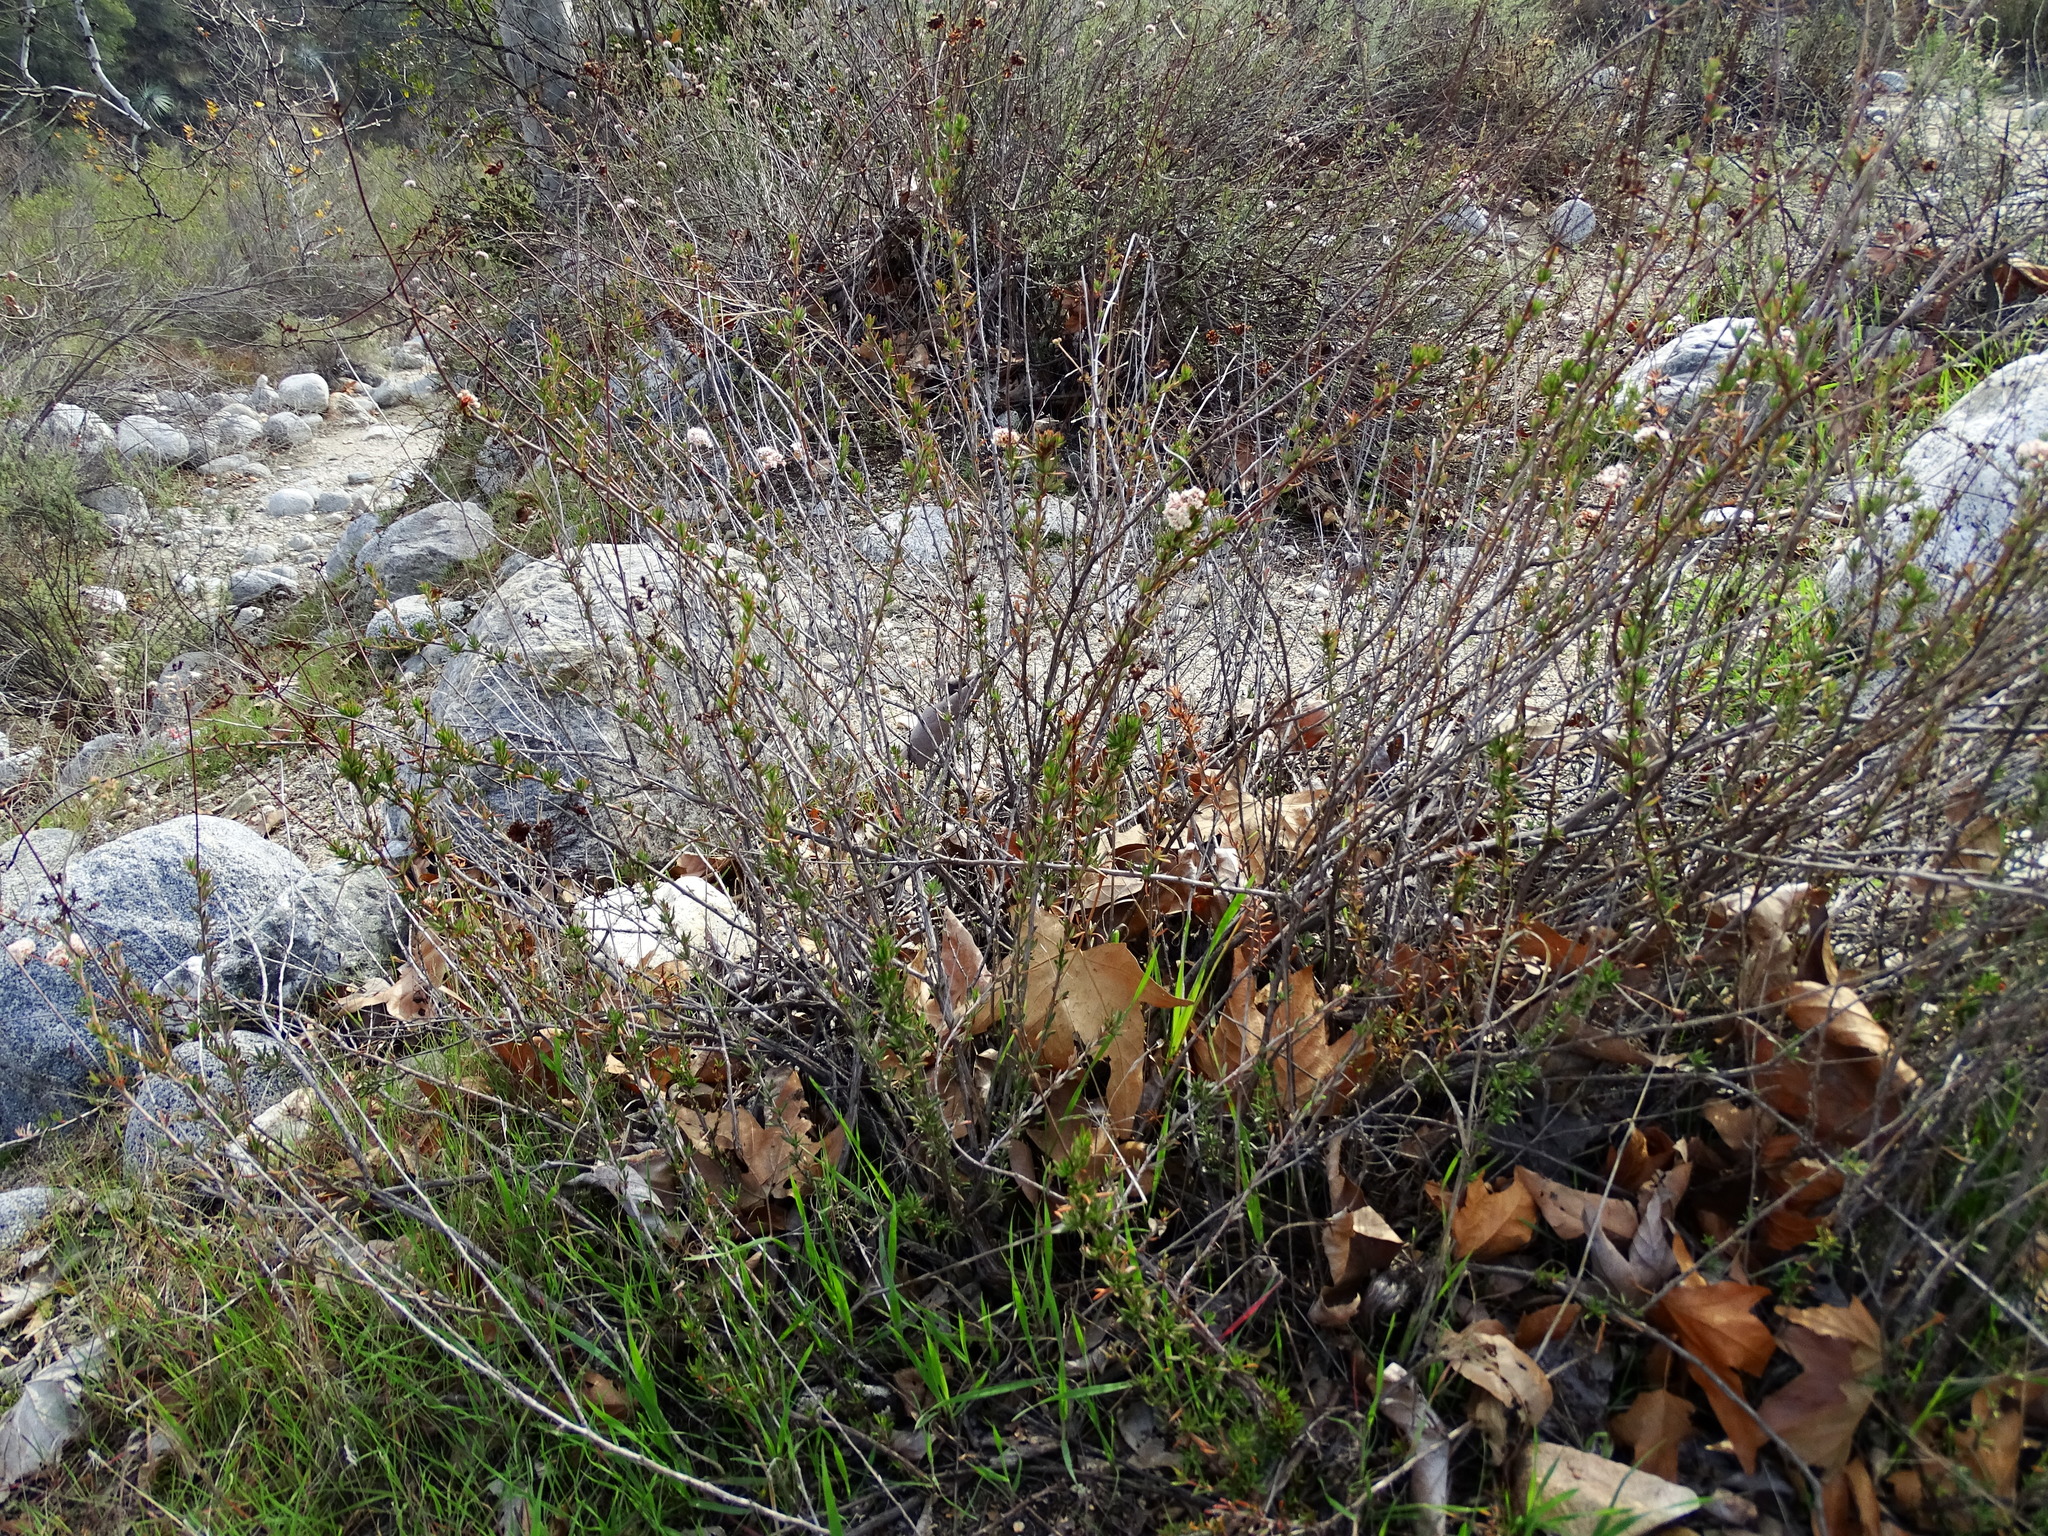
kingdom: Plantae
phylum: Tracheophyta
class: Magnoliopsida
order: Caryophyllales
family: Polygonaceae
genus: Eriogonum
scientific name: Eriogonum fasciculatum
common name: California wild buckwheat
